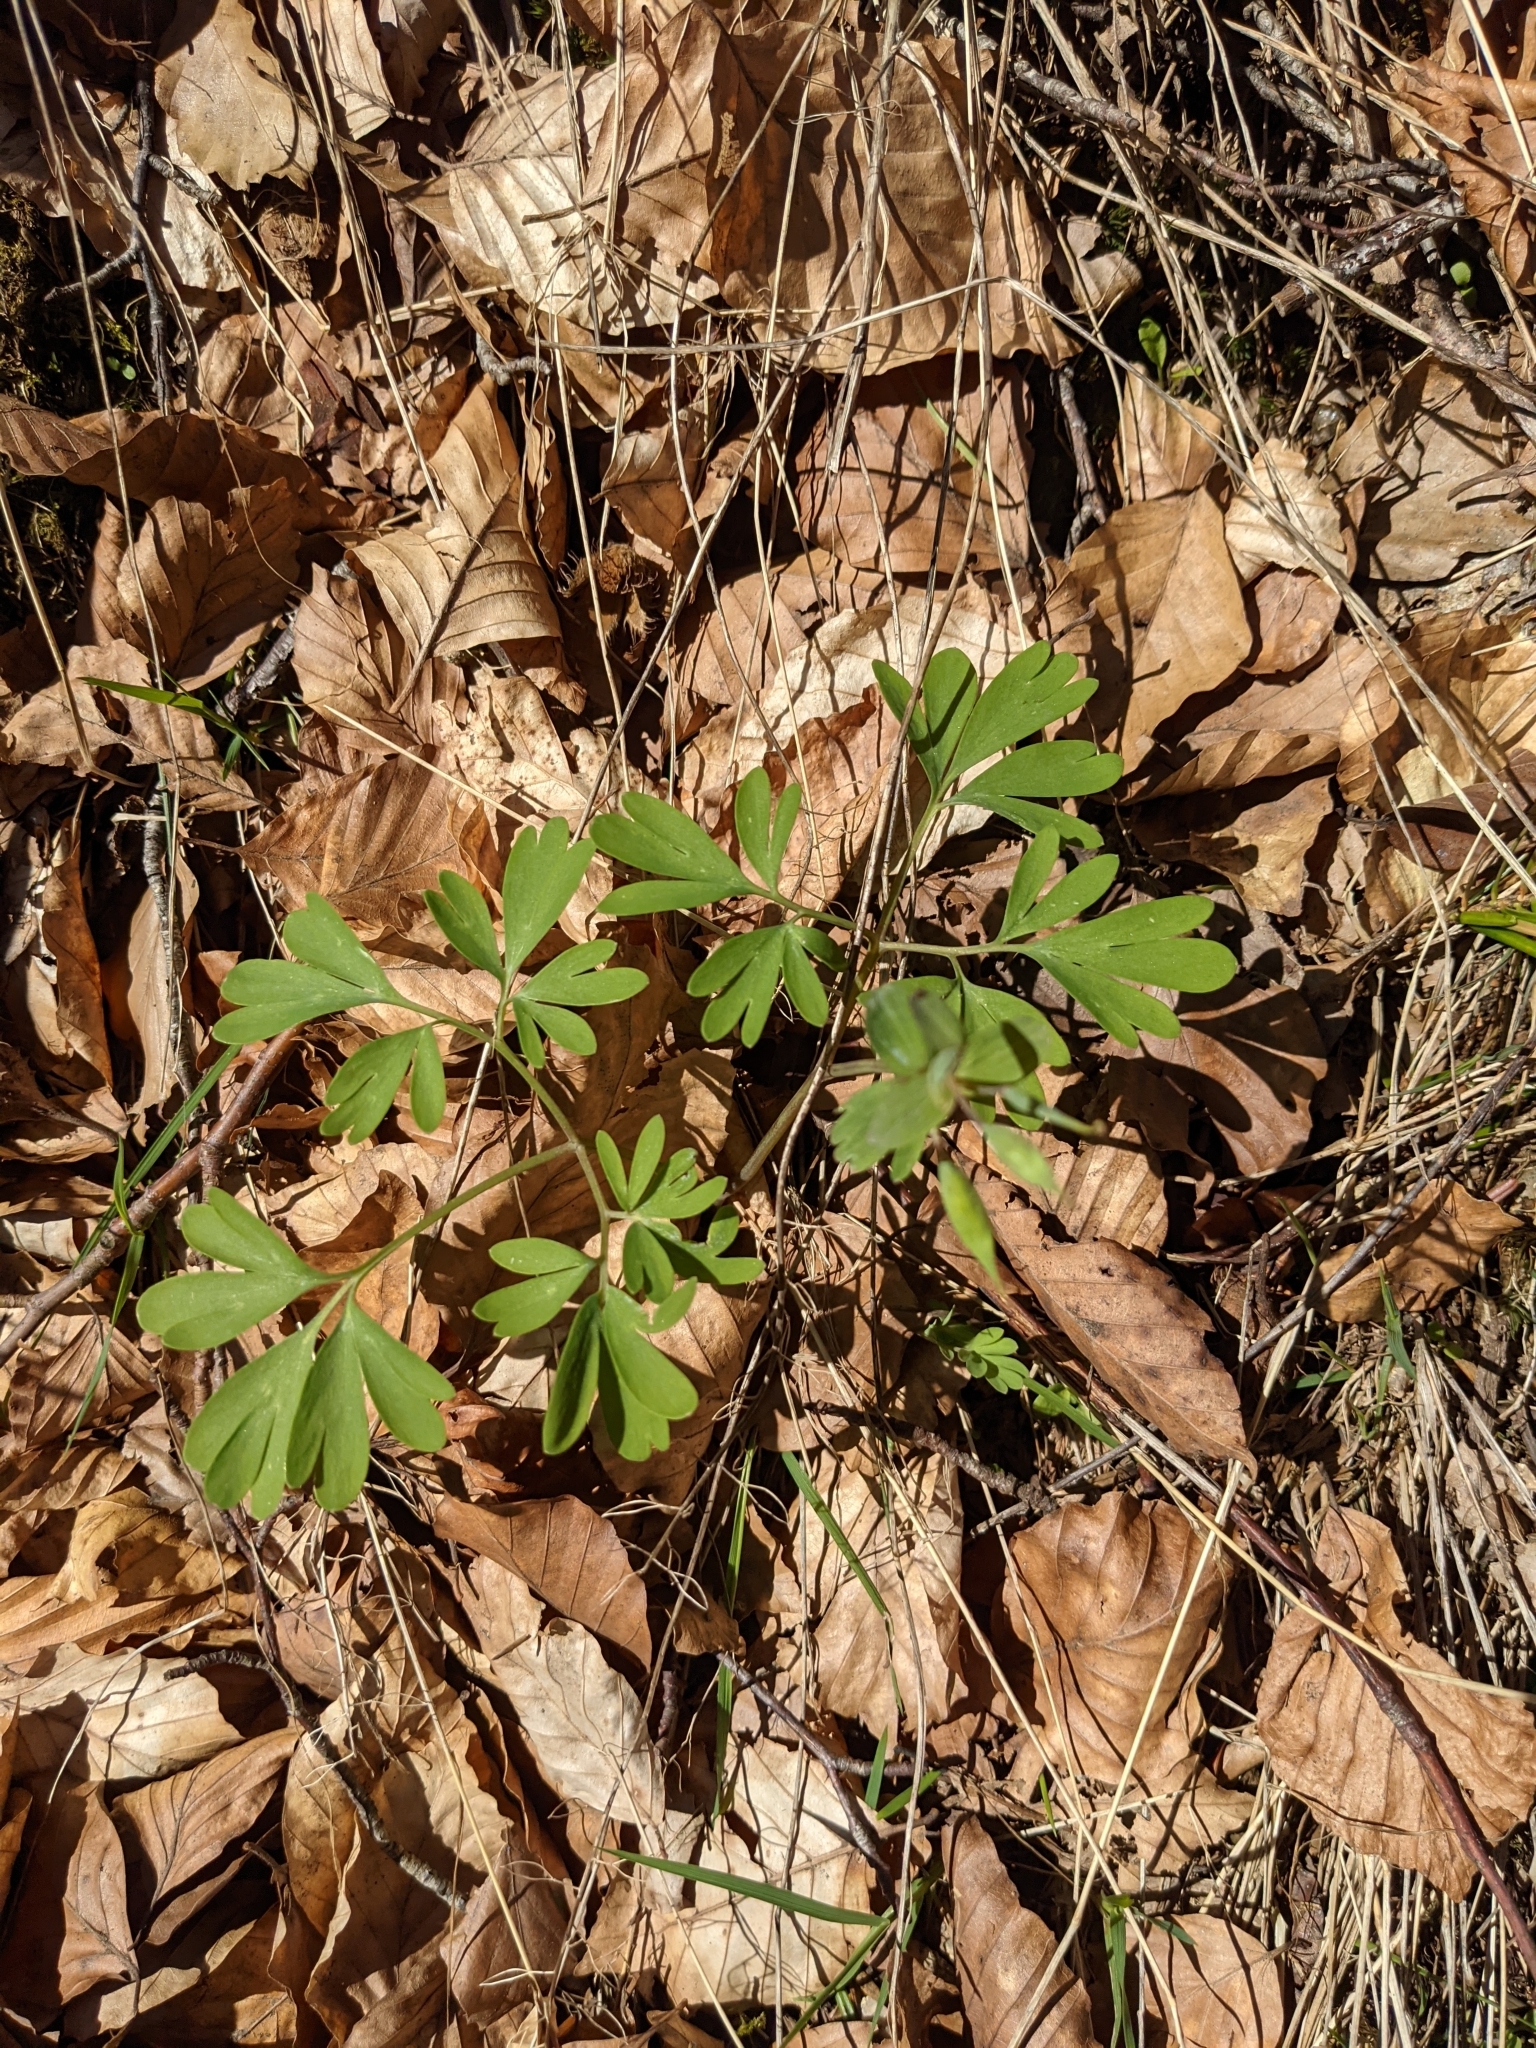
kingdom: Plantae
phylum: Tracheophyta
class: Magnoliopsida
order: Ranunculales
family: Papaveraceae
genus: Corydalis
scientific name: Corydalis solida
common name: Bird-in-a-bush
